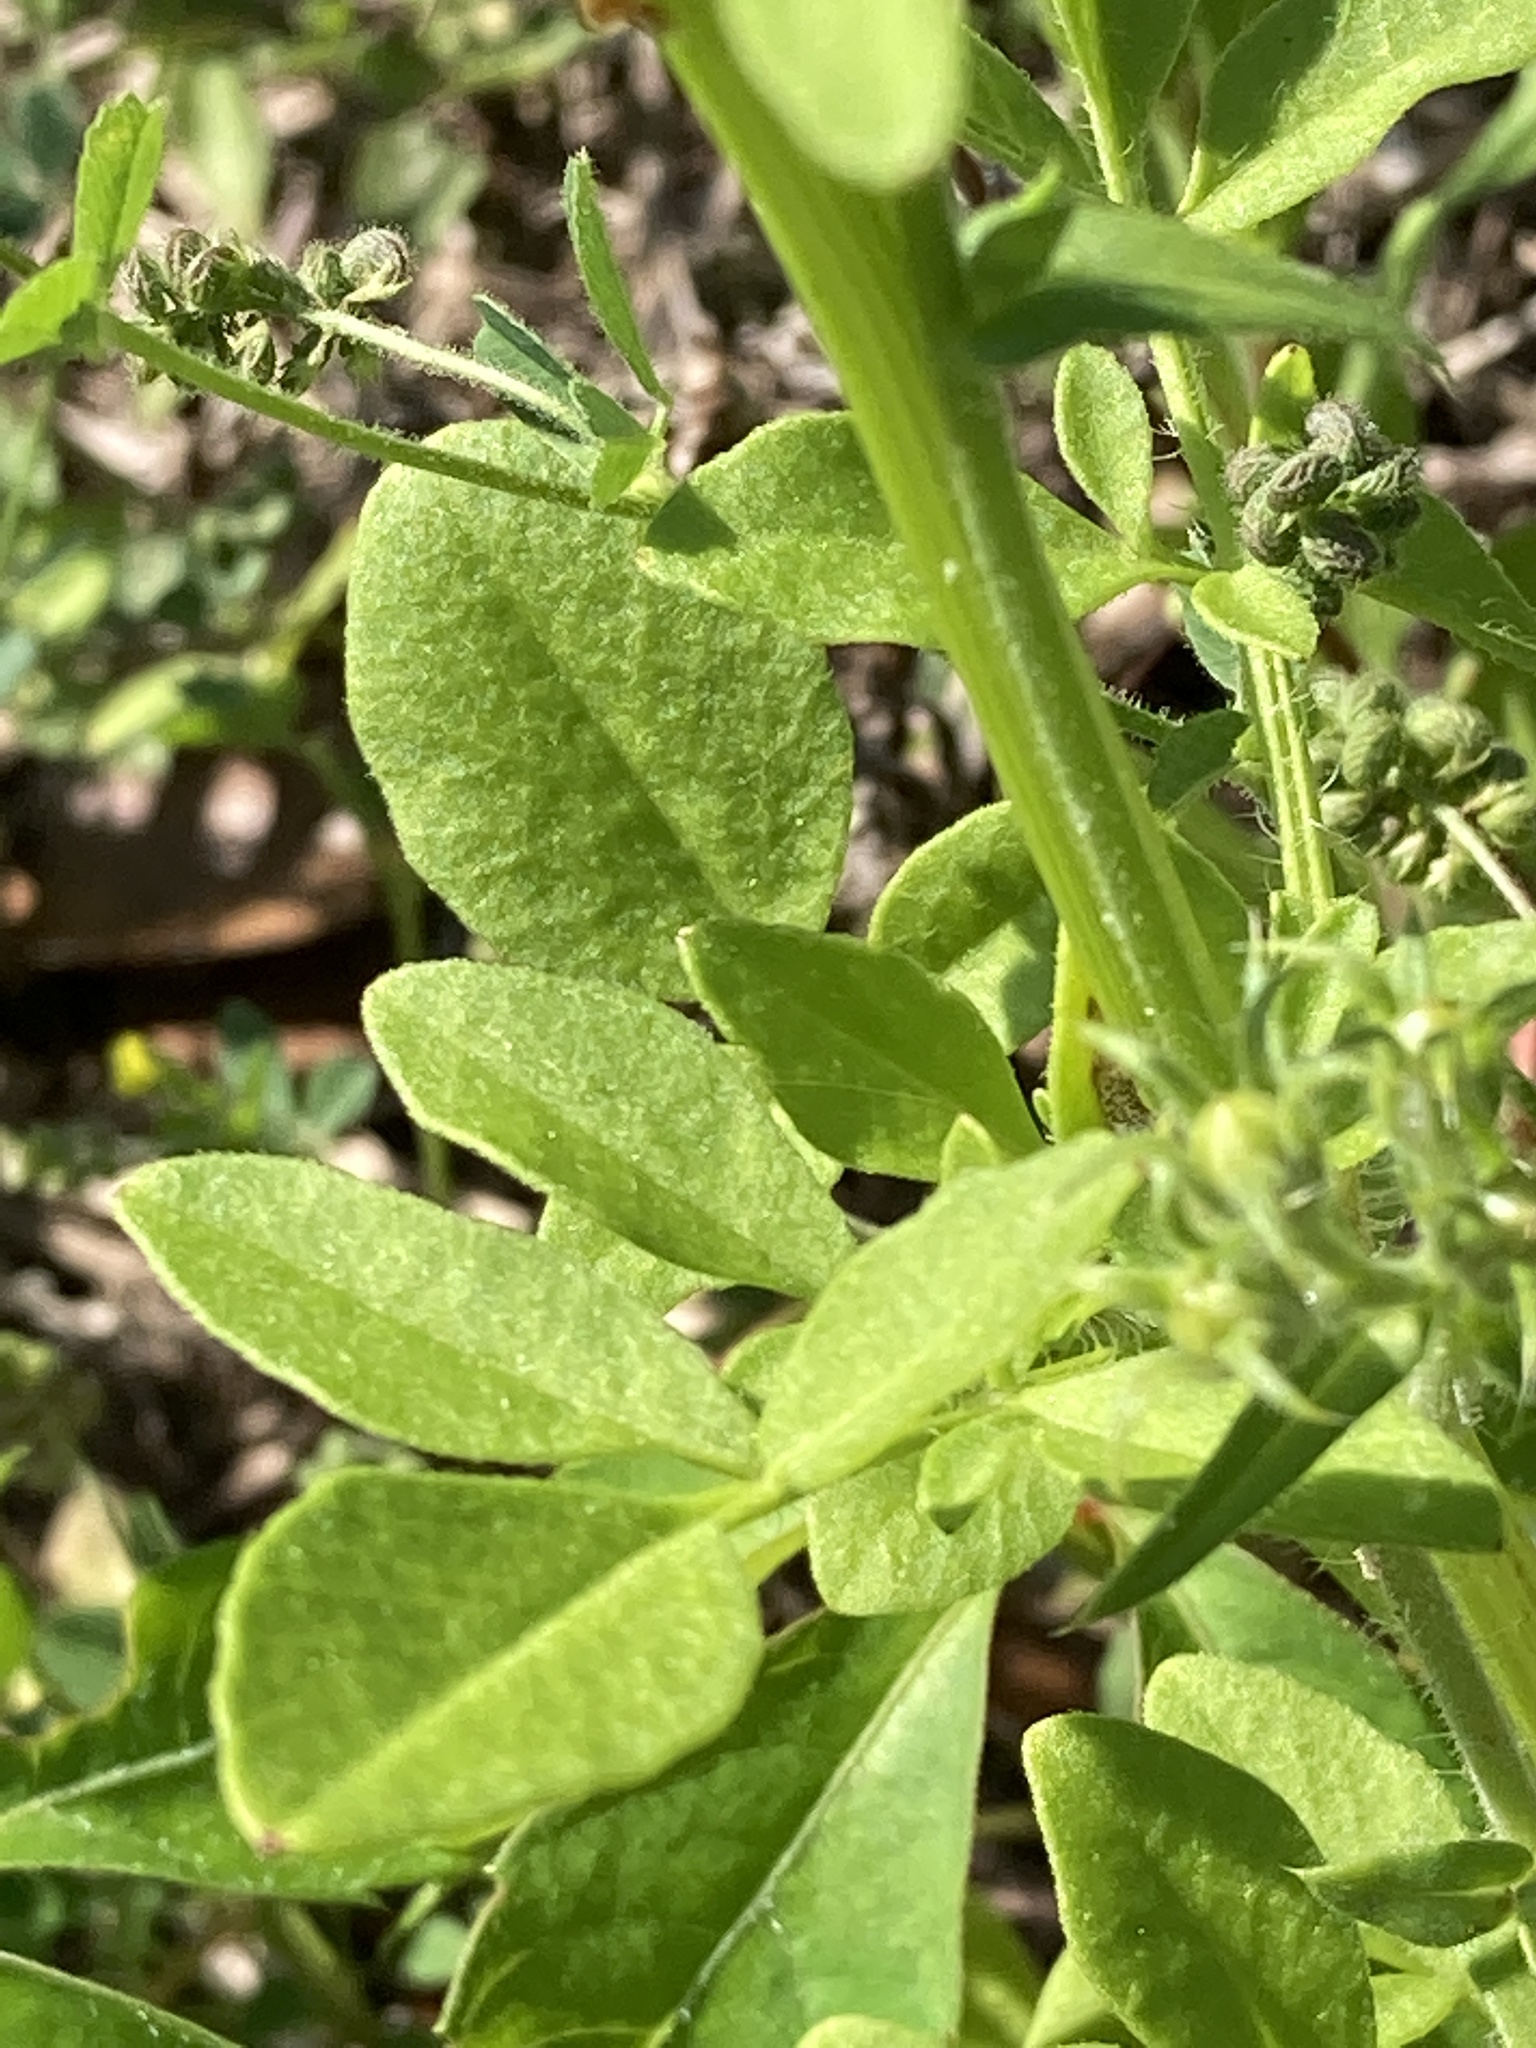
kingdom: Plantae
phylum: Tracheophyta
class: Magnoliopsida
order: Asterales
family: Asteraceae
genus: Coreopsis
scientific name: Coreopsis basalis
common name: Golden-mane coreopsis
